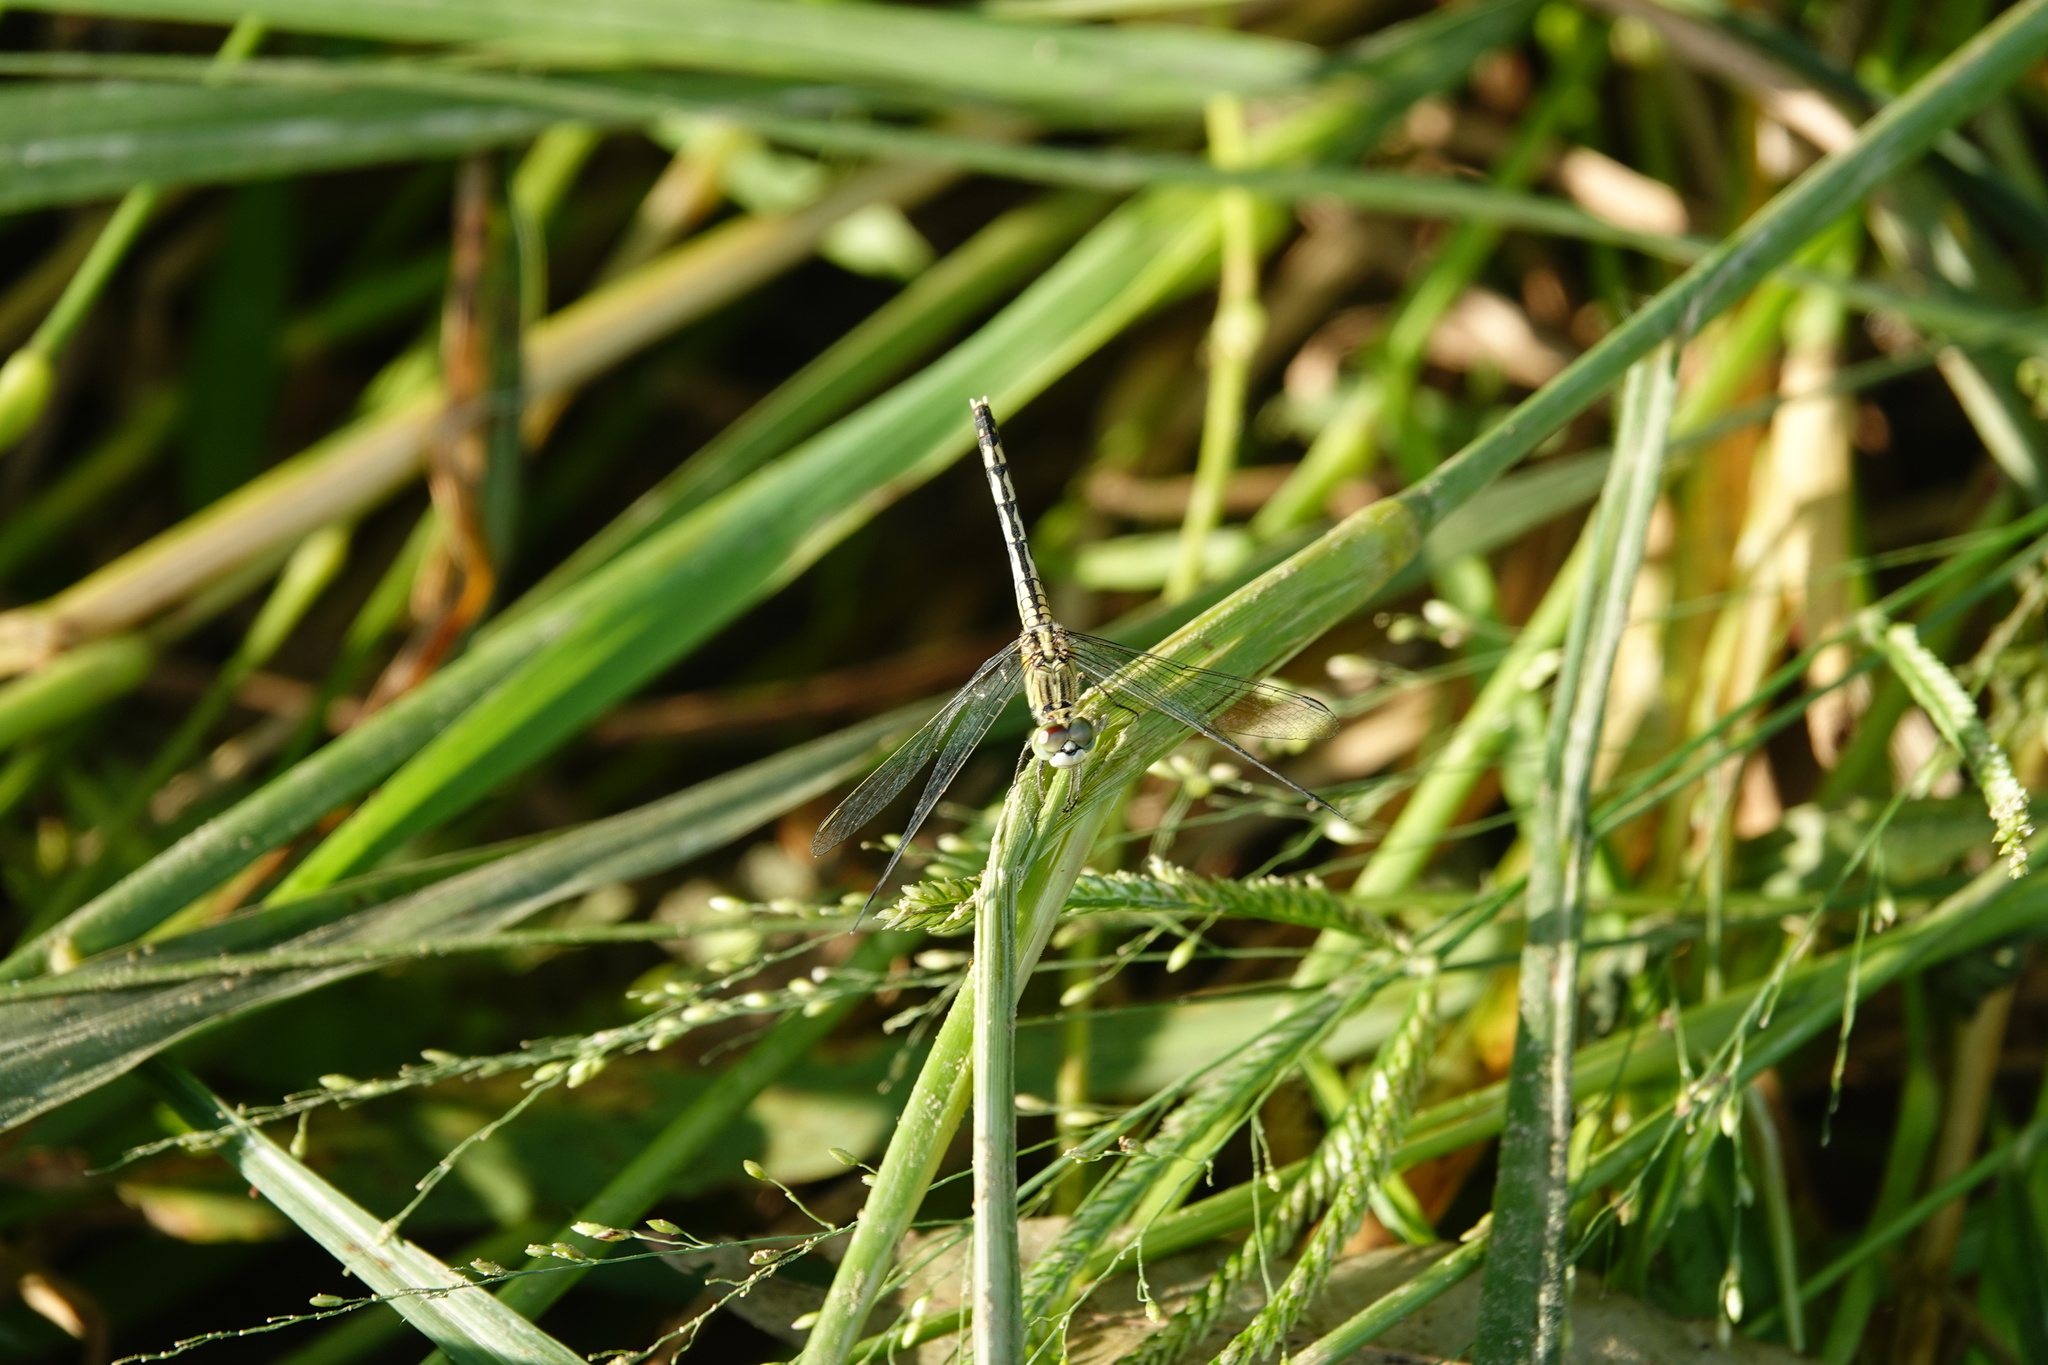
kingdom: Animalia
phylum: Arthropoda
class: Insecta
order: Odonata
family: Libellulidae
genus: Diplacodes
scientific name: Diplacodes trivialis
